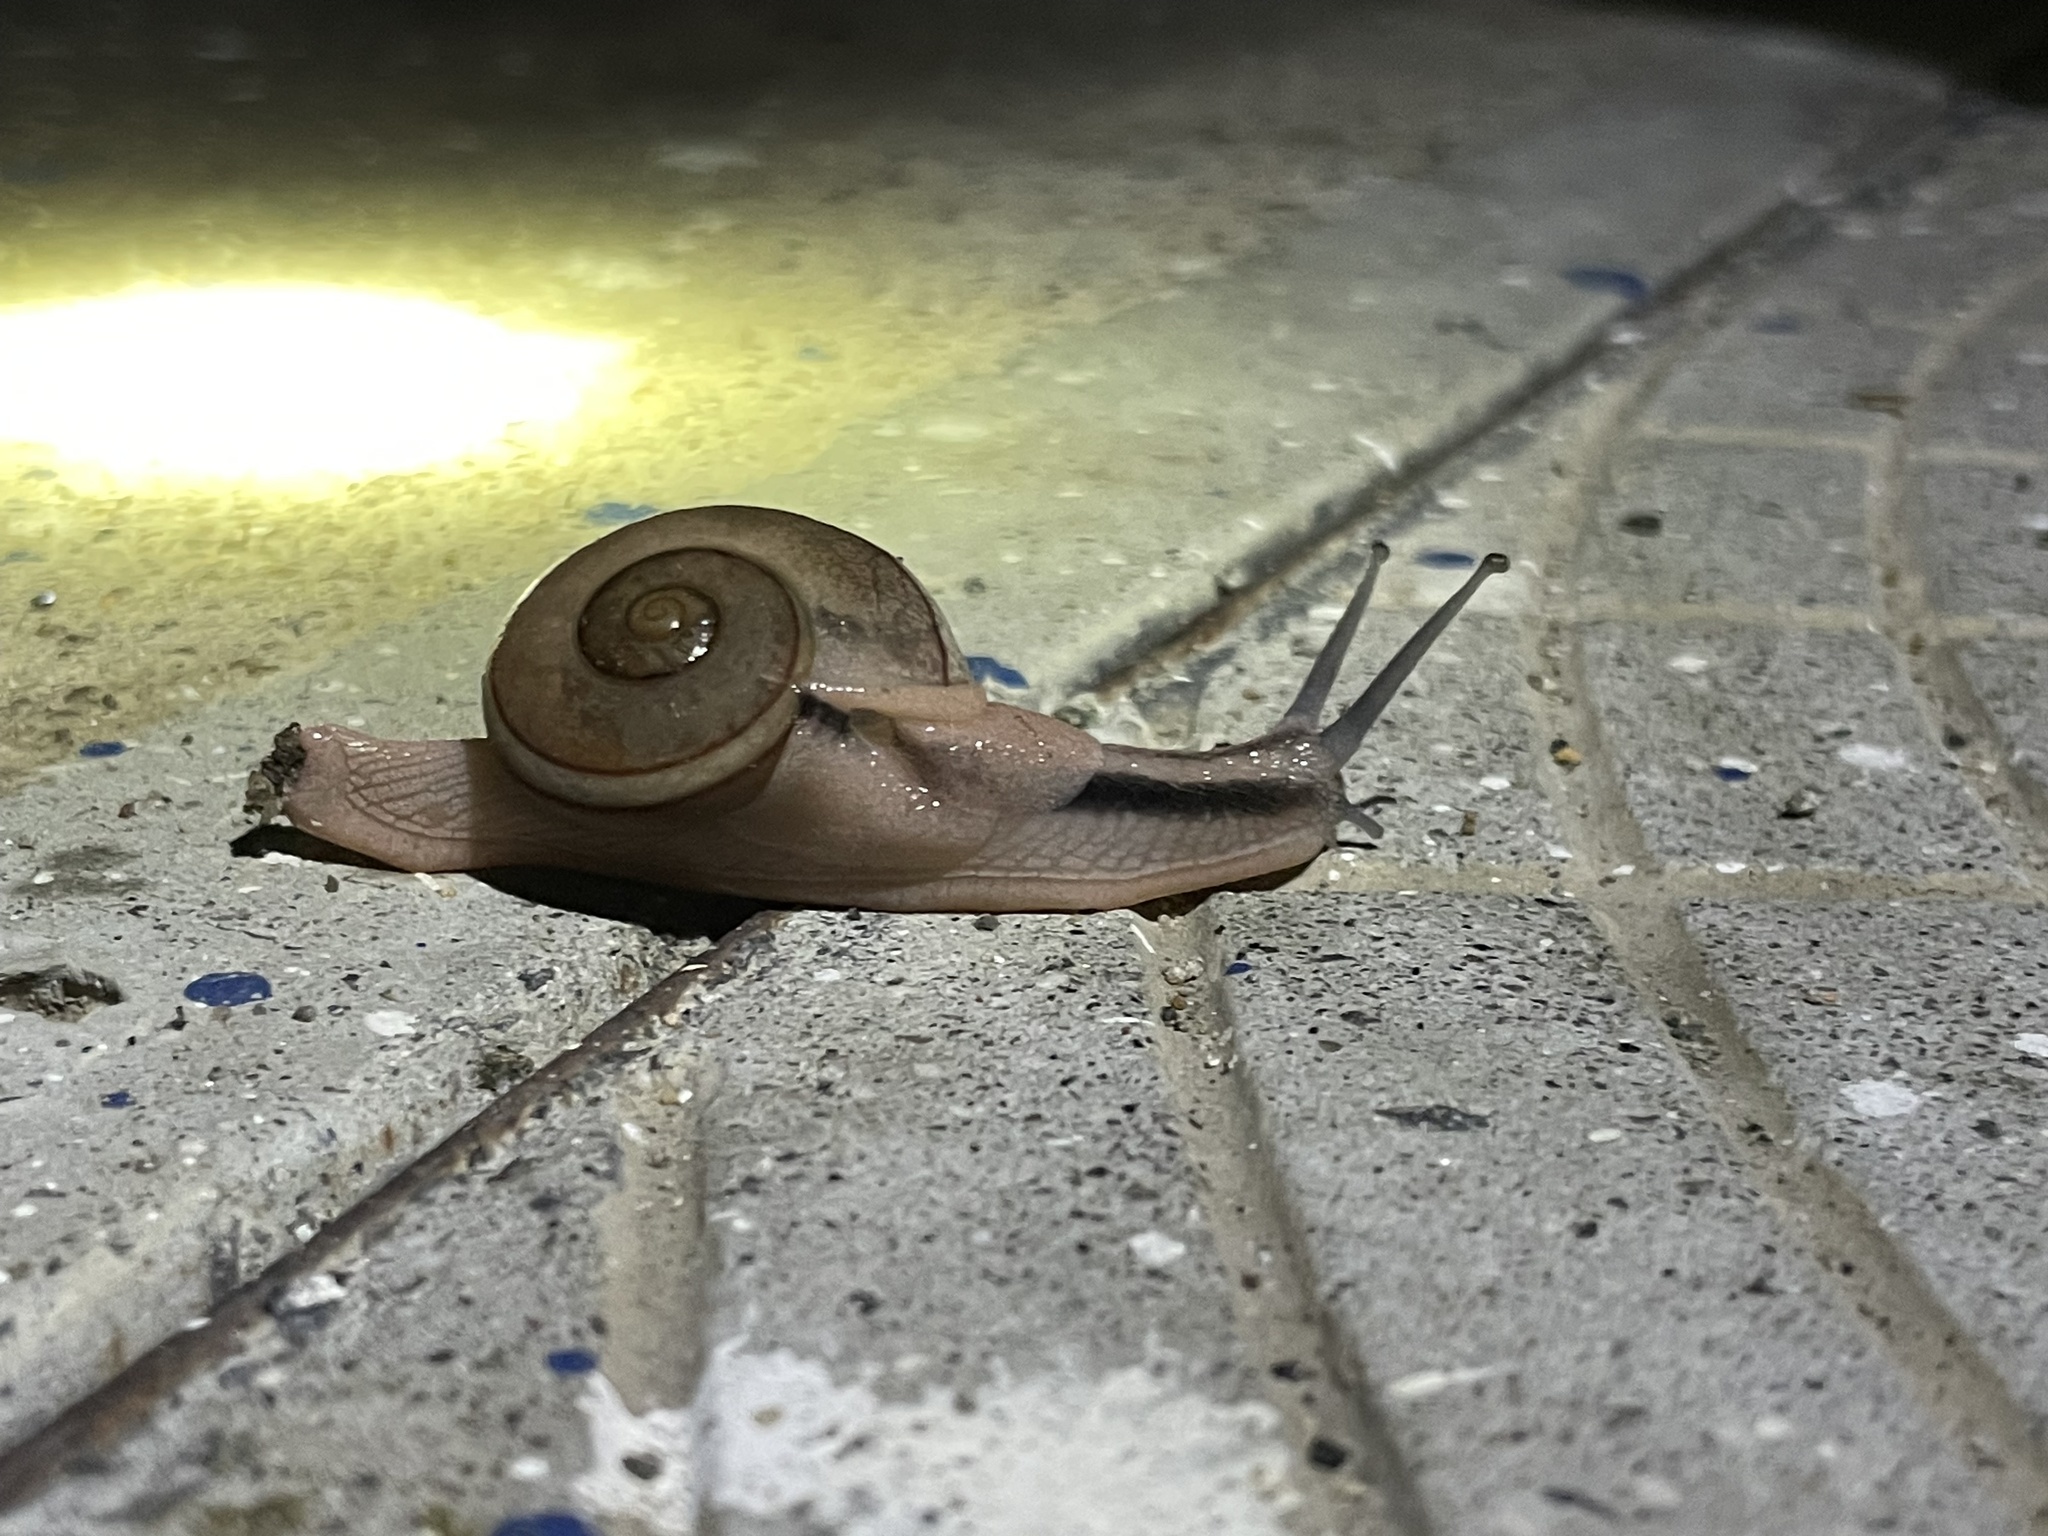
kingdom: Animalia
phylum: Mollusca
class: Gastropoda
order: Stylommatophora
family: Ariophantidae
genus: Ariophanta
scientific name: Ariophanta exilis
